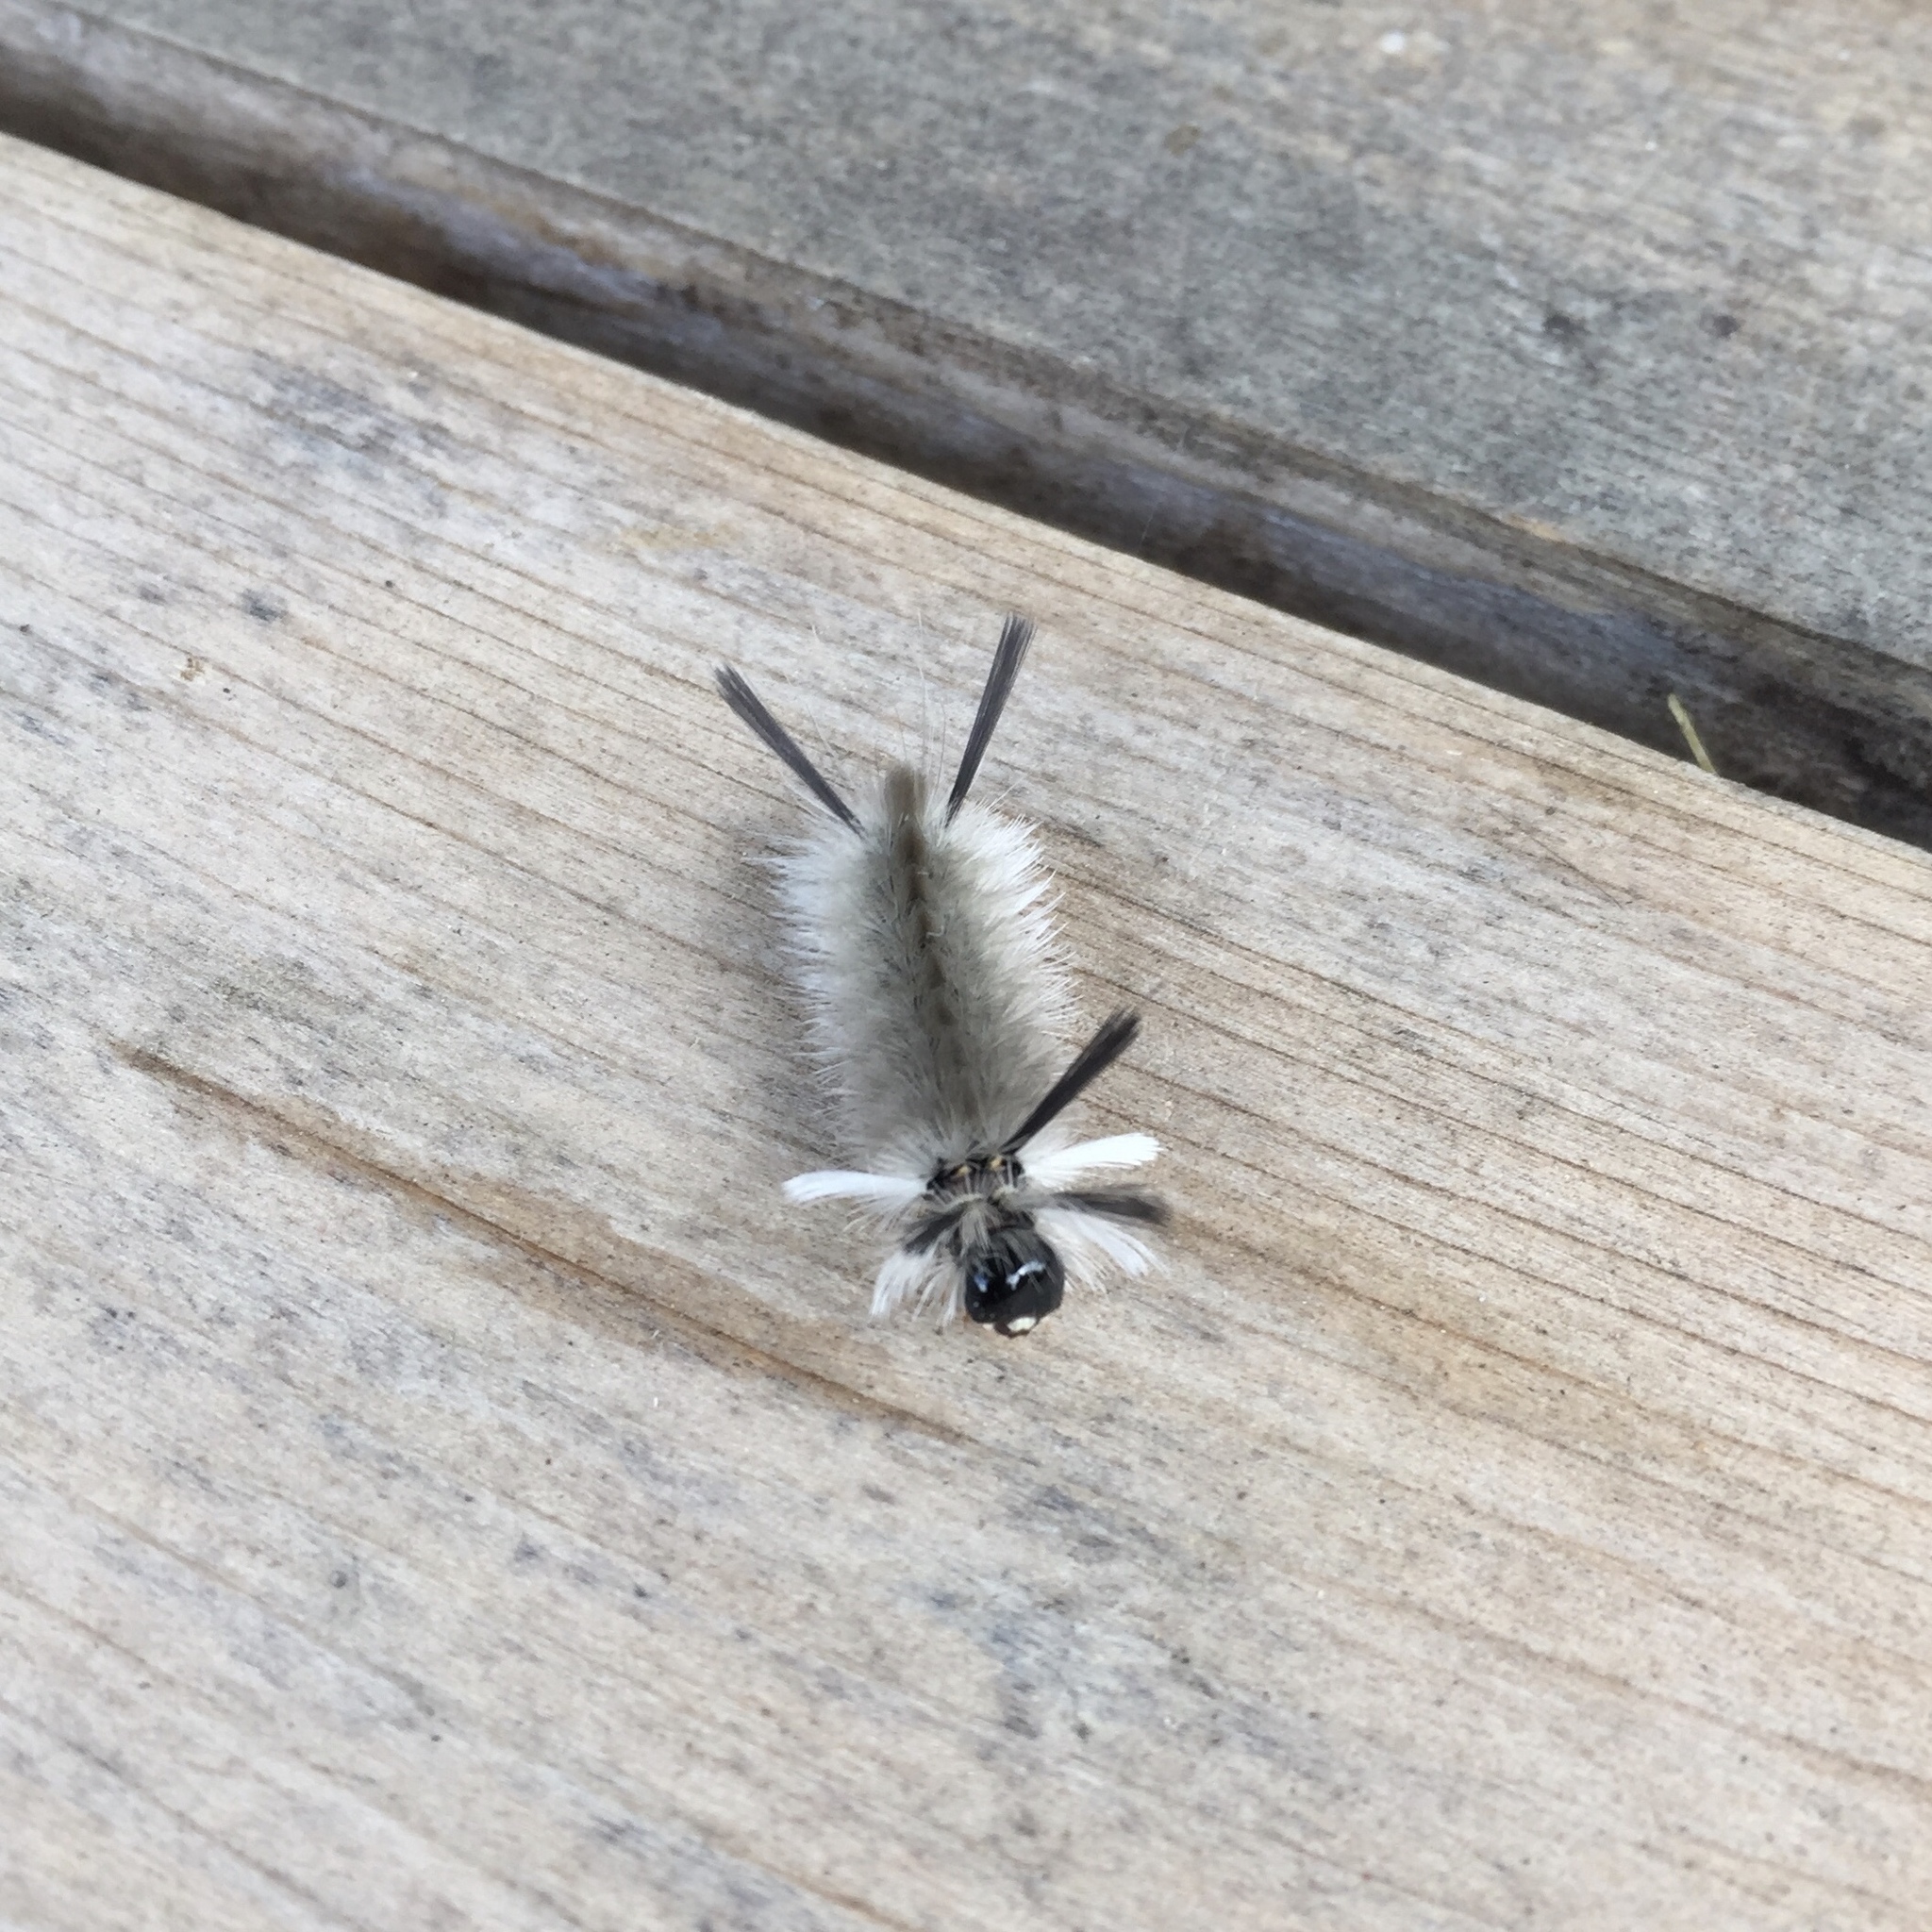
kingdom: Animalia
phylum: Arthropoda
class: Insecta
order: Lepidoptera
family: Erebidae
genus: Halysidota
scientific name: Halysidota tessellaris
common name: Banded tussock moth
